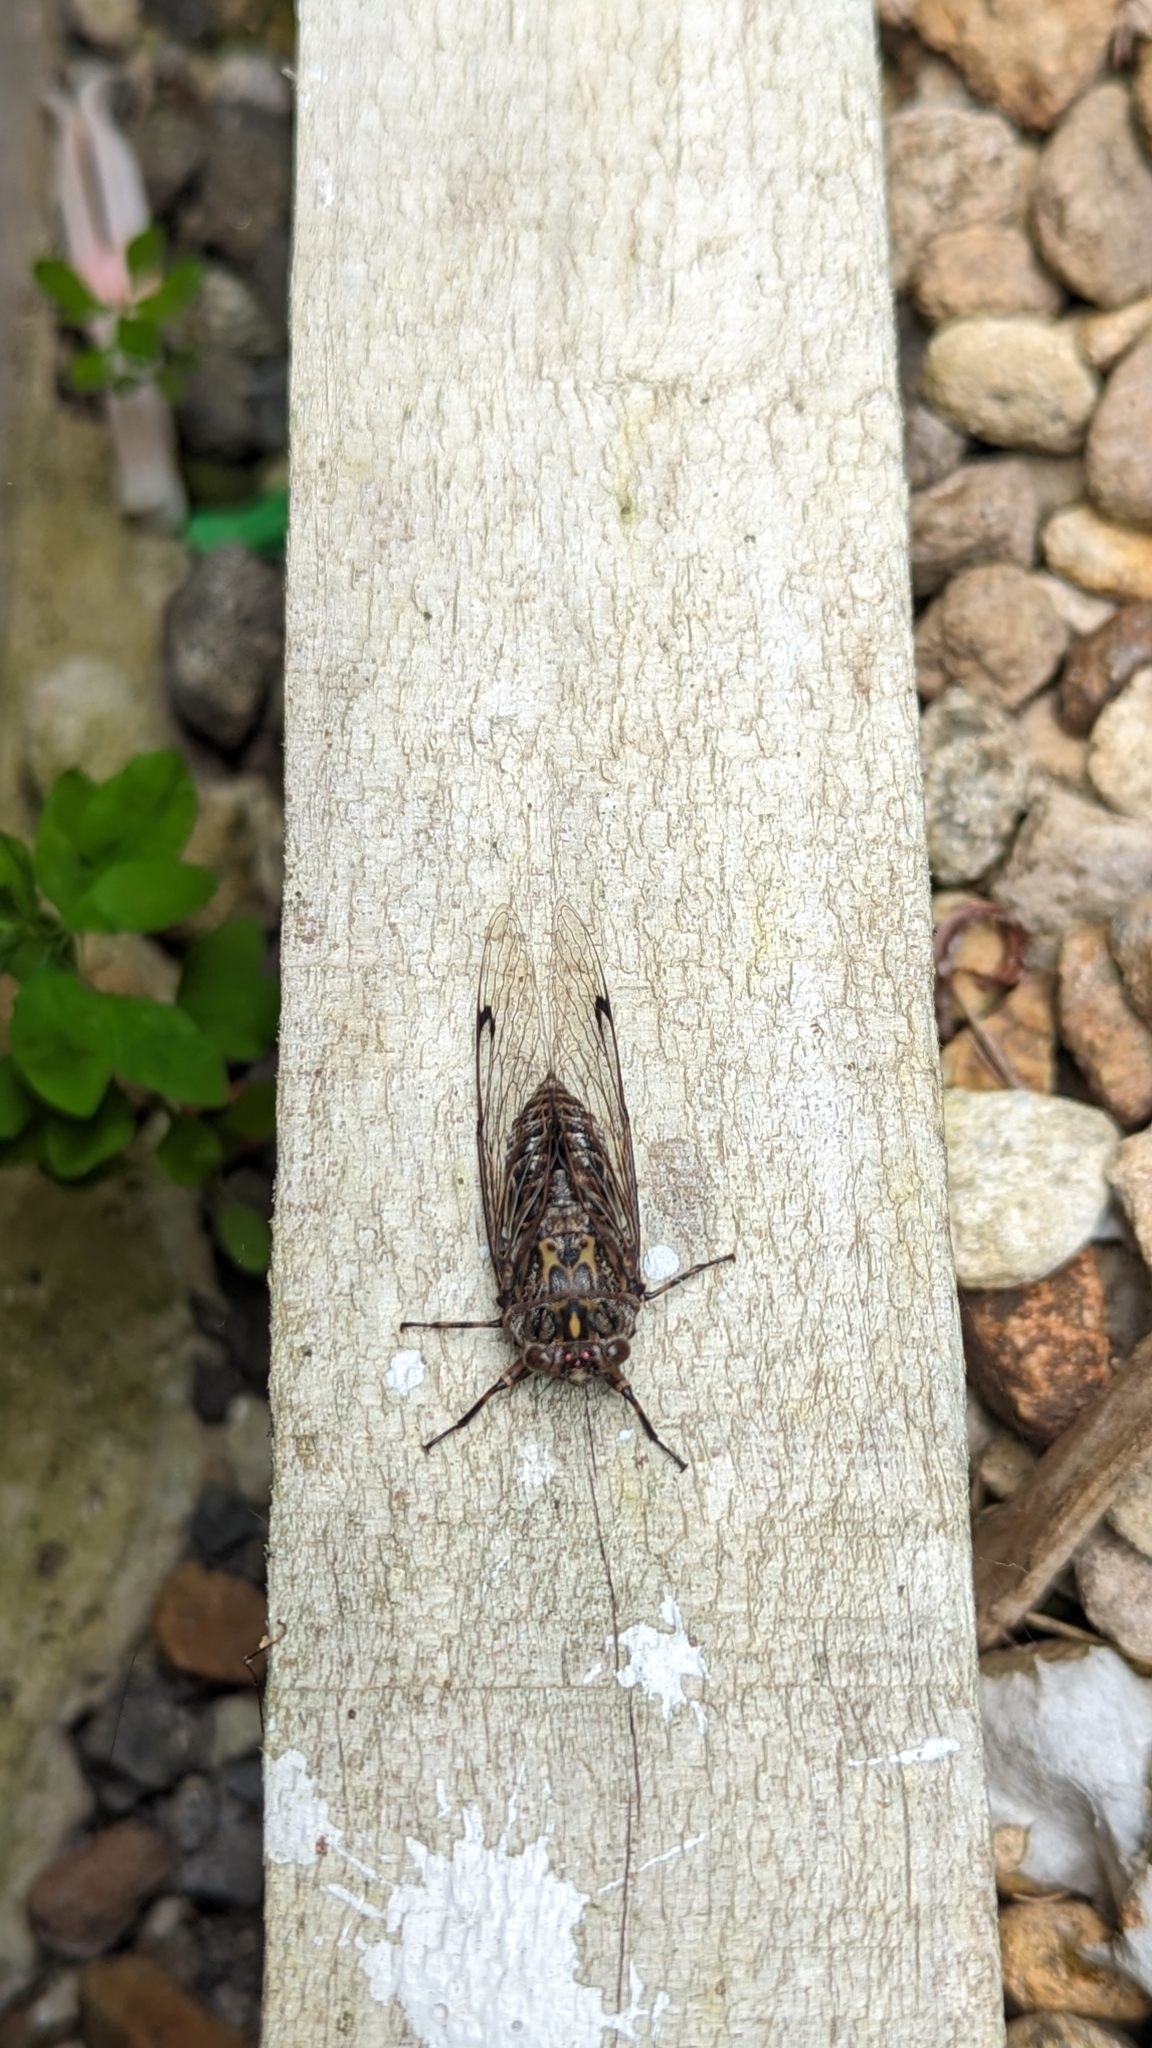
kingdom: Animalia
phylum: Arthropoda
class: Insecta
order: Hemiptera
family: Cicadidae
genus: Amphipsalta
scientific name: Amphipsalta cingulata
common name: Clapping cicada
